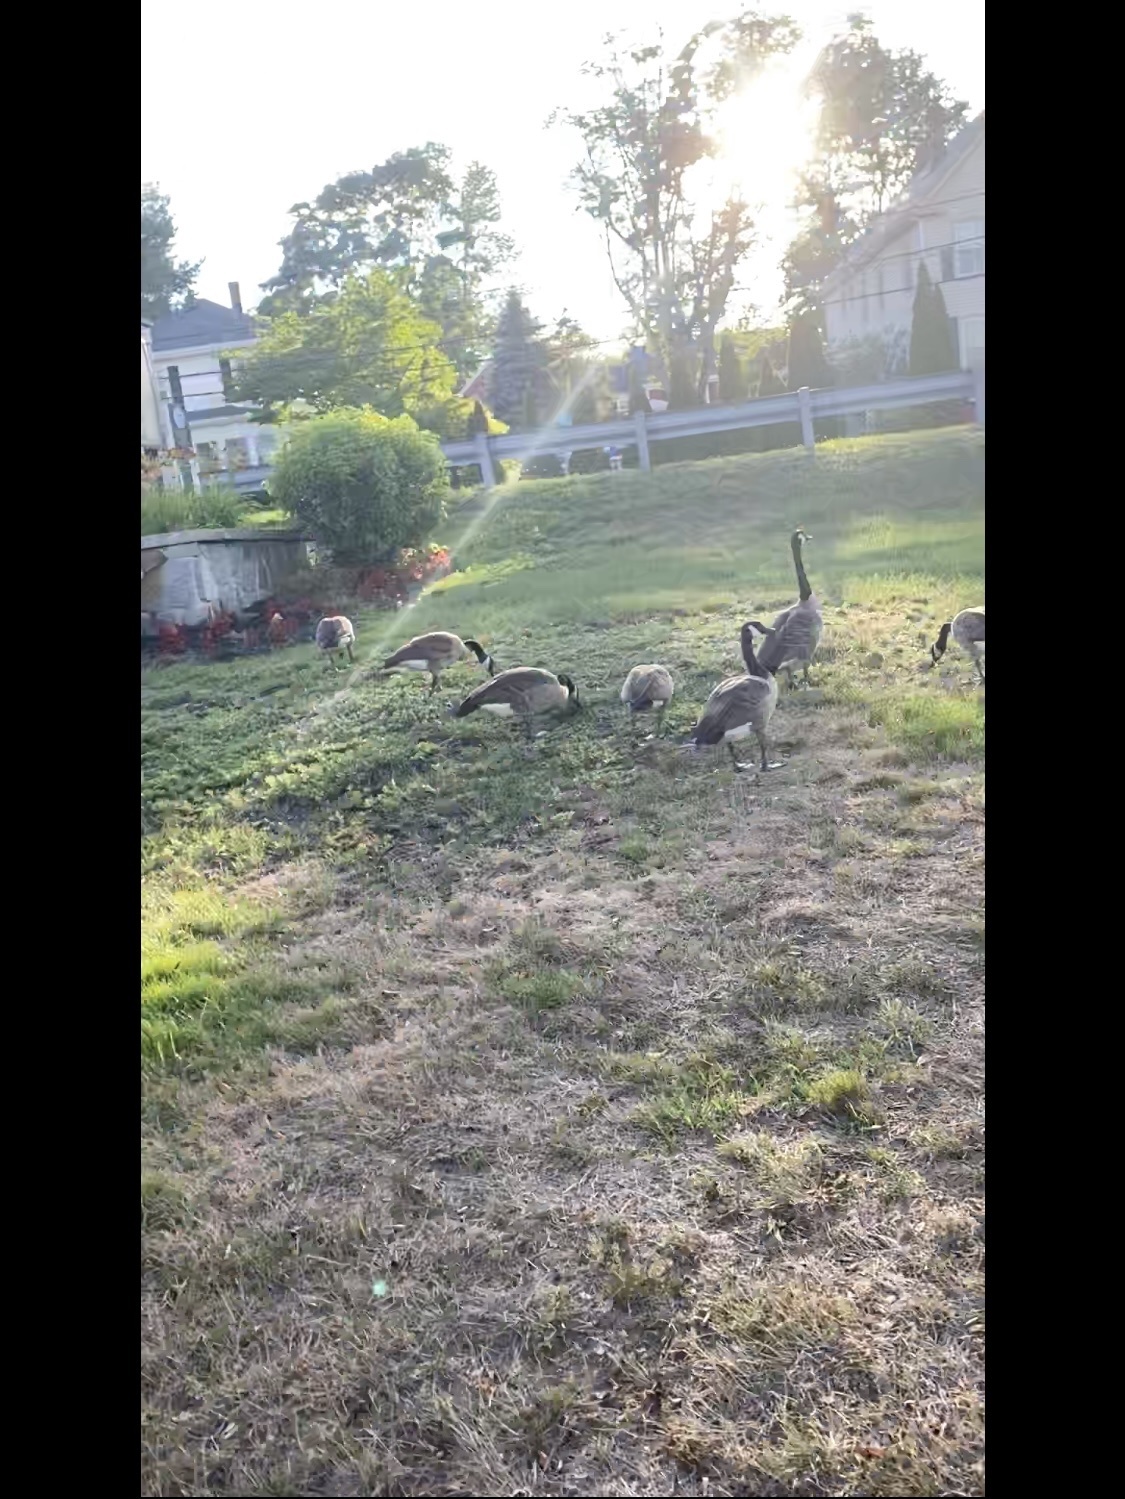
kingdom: Animalia
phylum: Chordata
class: Aves
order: Anseriformes
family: Anatidae
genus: Branta
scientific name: Branta canadensis
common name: Canada goose
